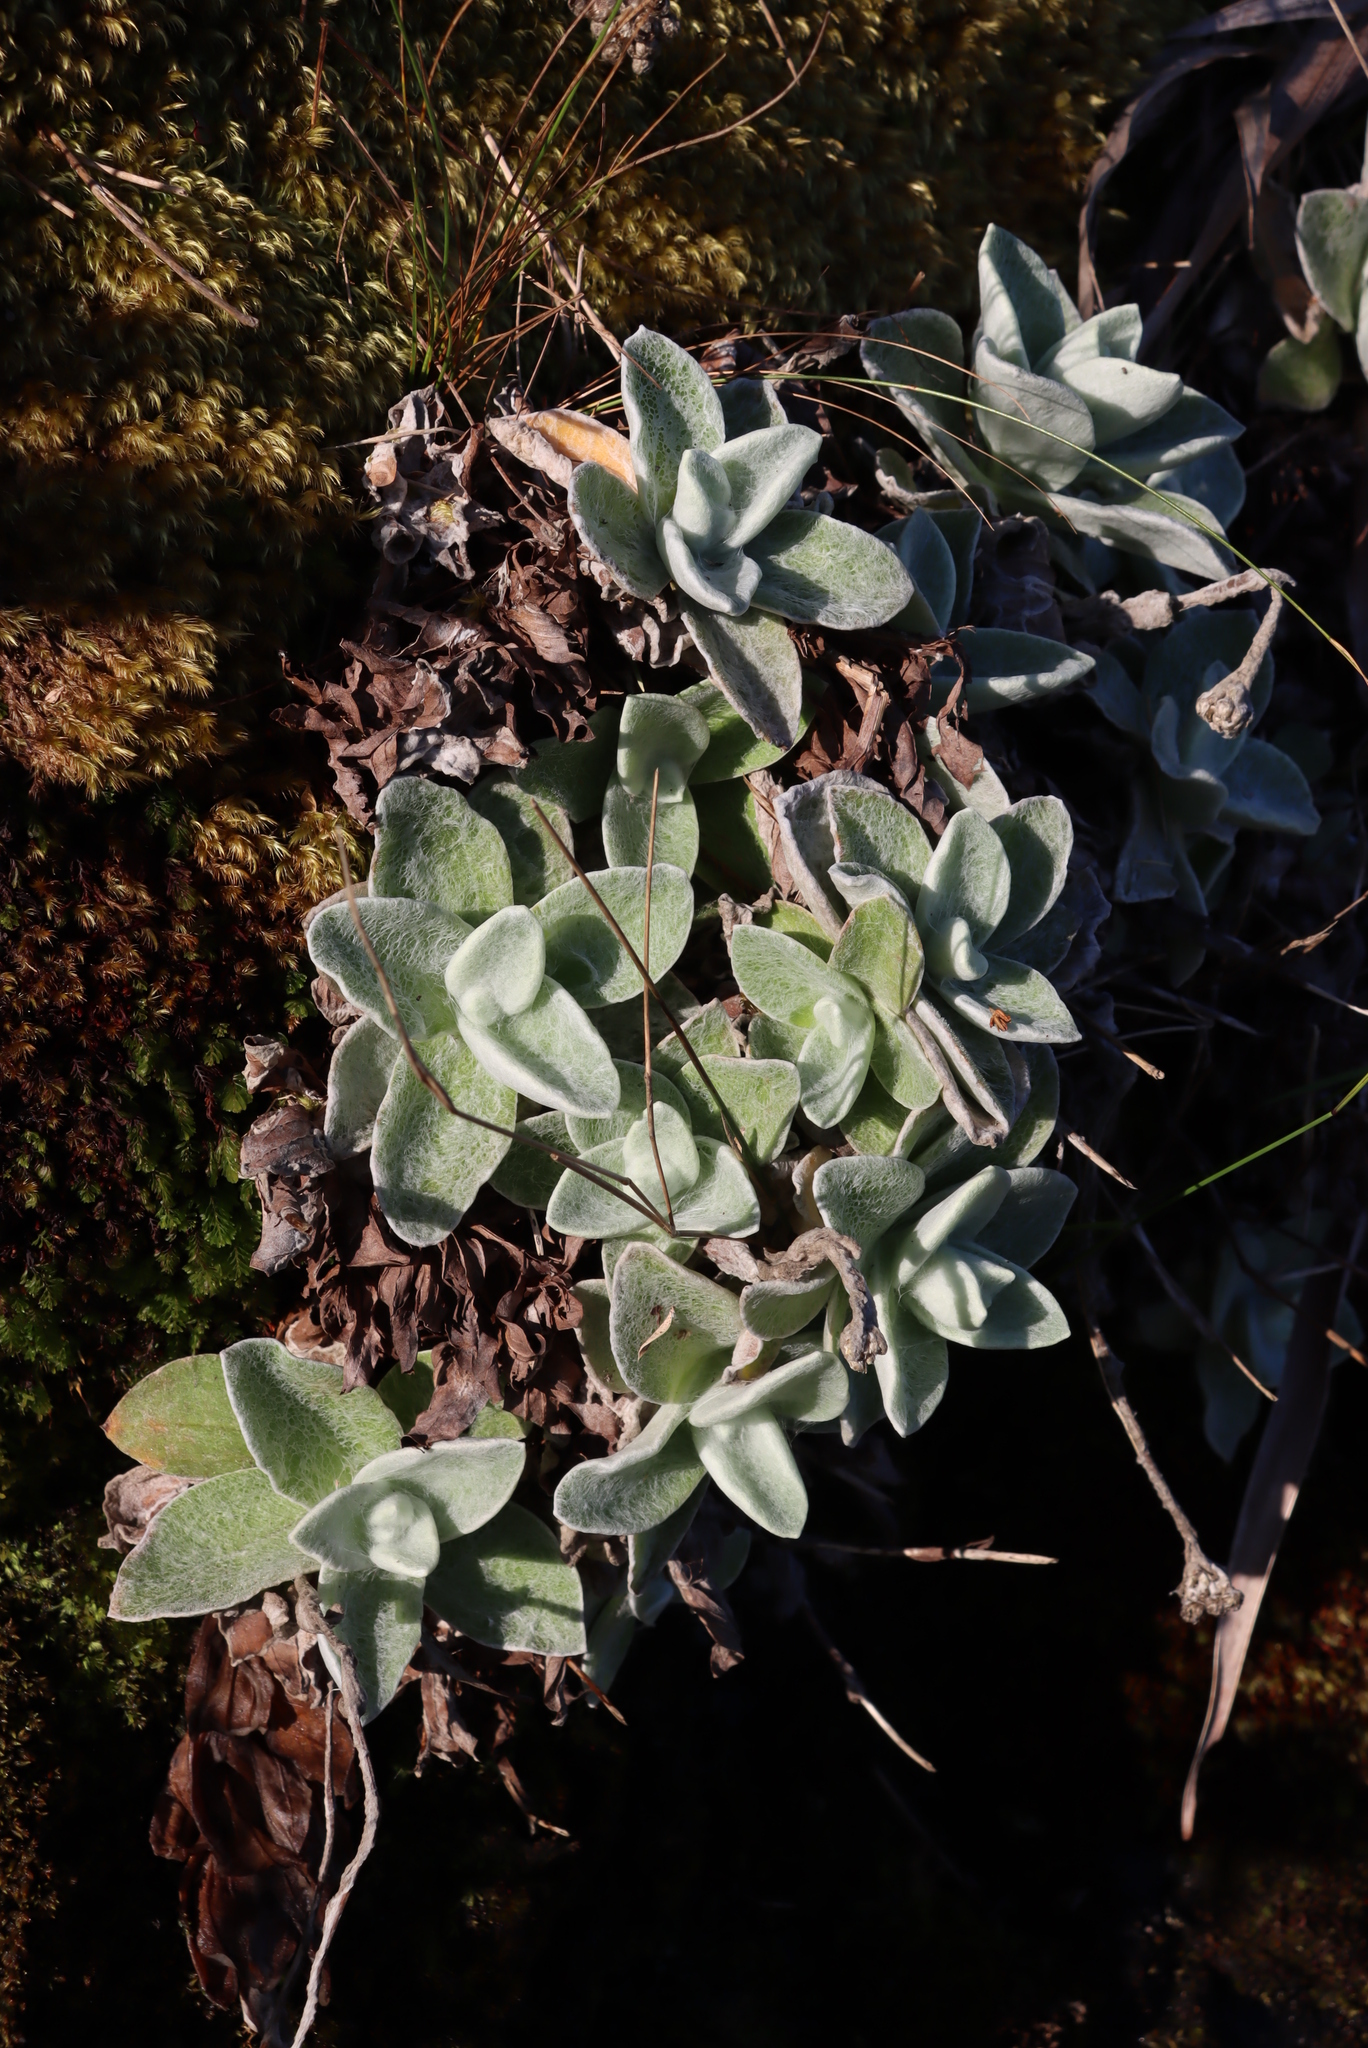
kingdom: Plantae
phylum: Tracheophyta
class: Magnoliopsida
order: Asterales
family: Asteraceae
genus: Helichrysum
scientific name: Helichrysum grandiflorum
